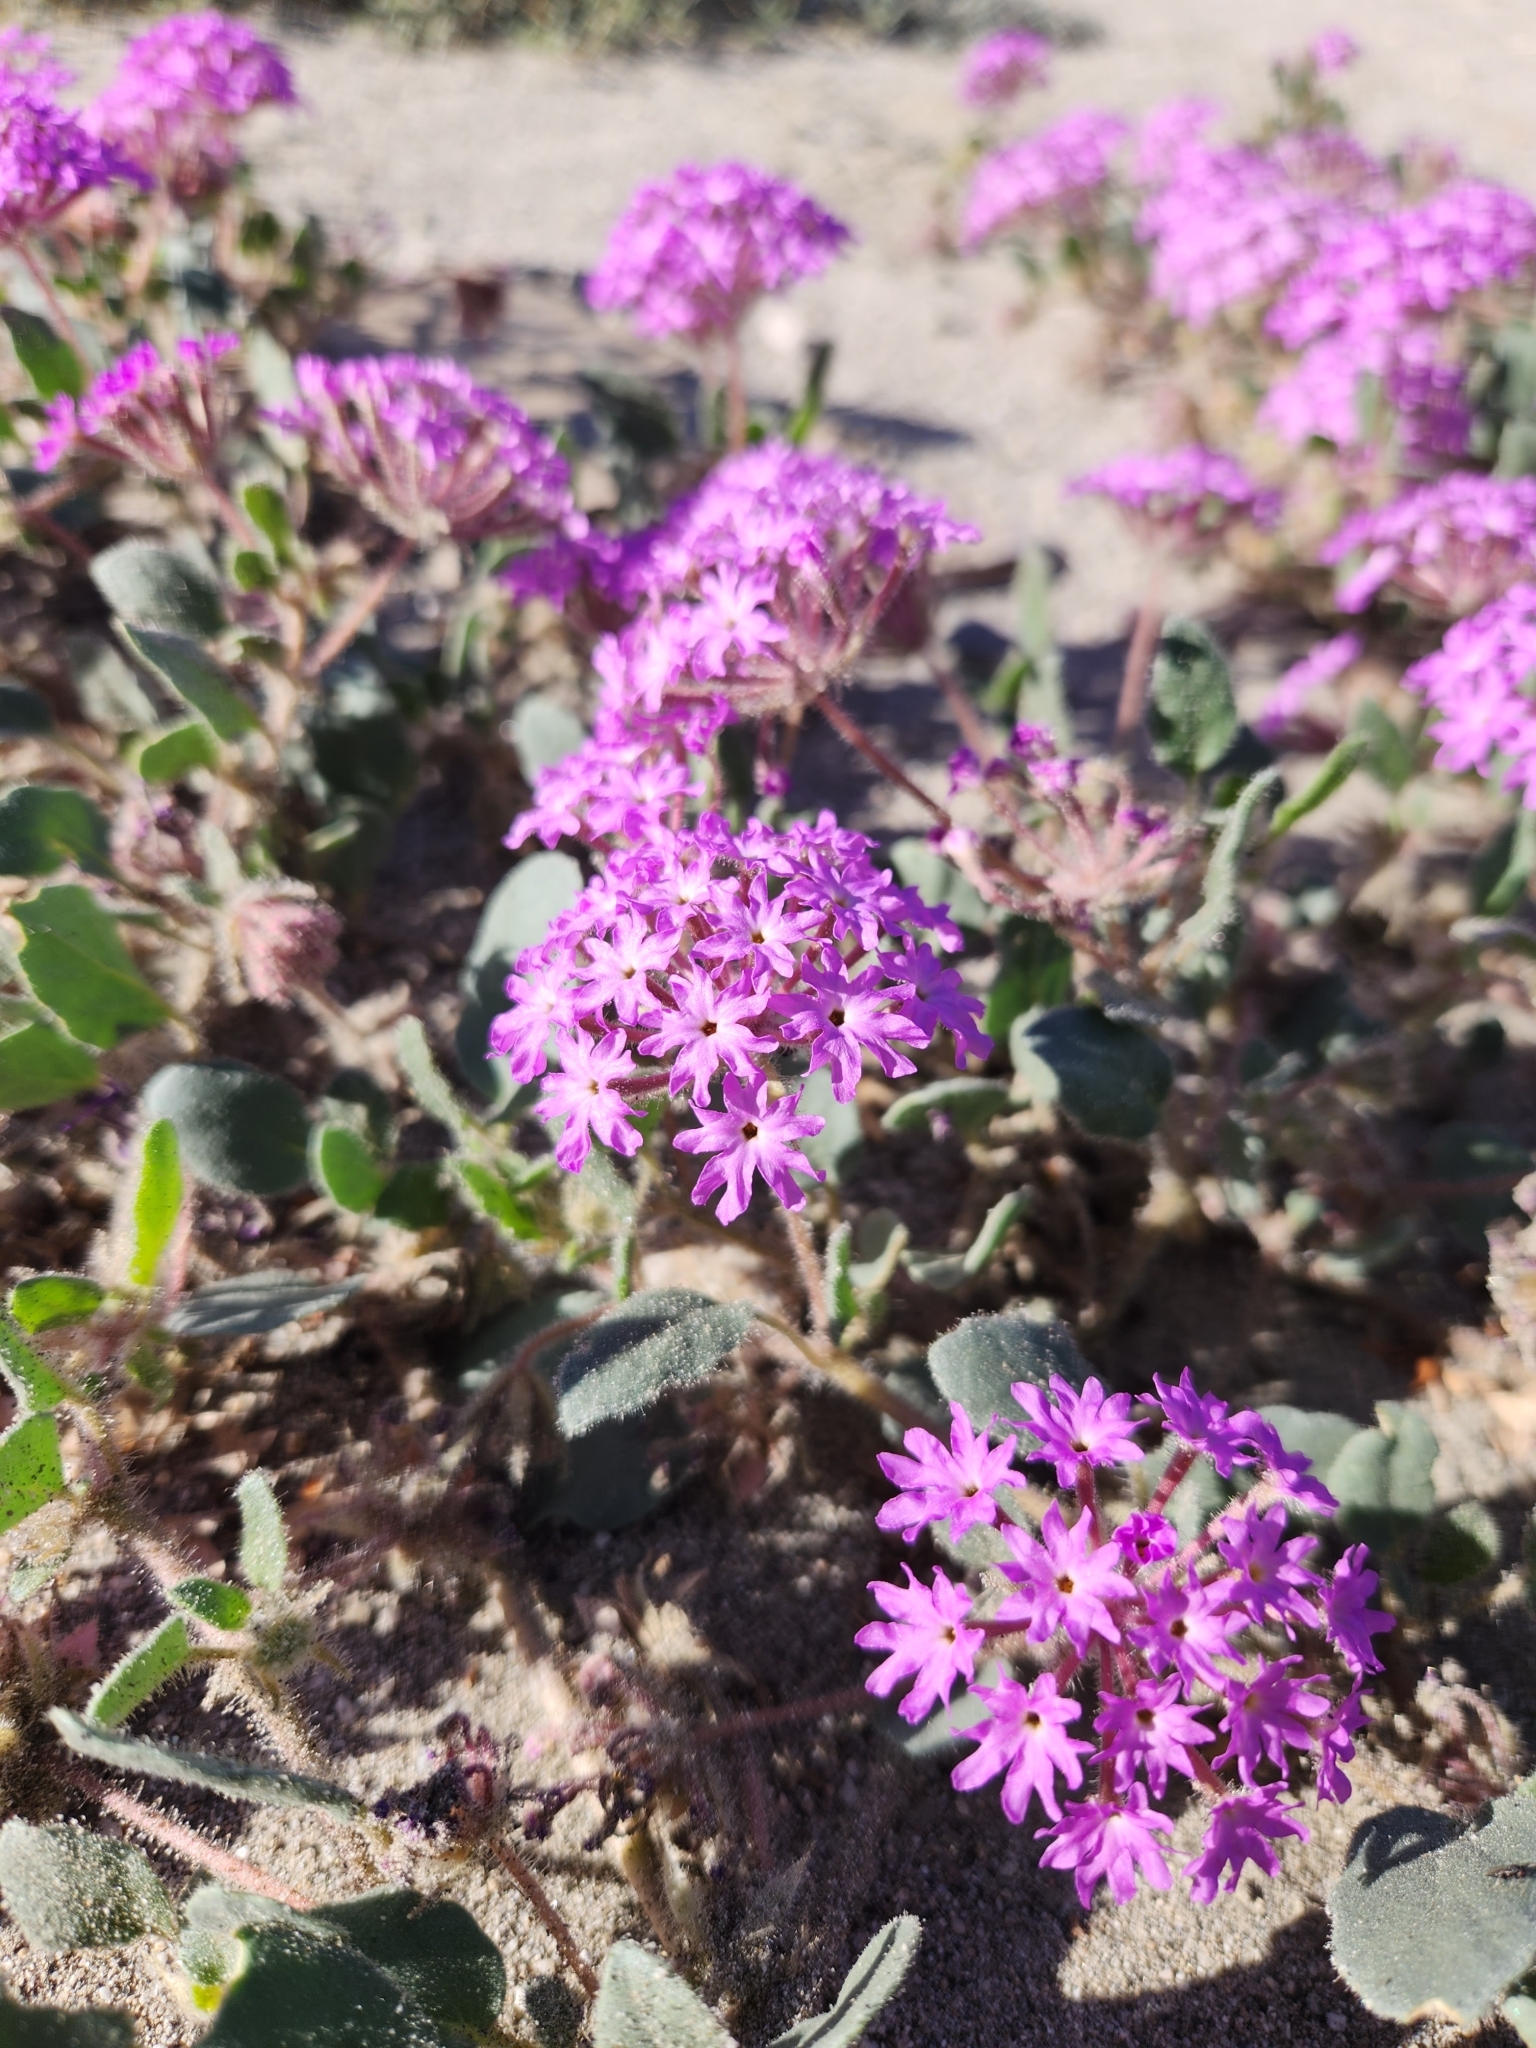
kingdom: Plantae
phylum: Tracheophyta
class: Magnoliopsida
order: Caryophyllales
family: Nyctaginaceae
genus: Abronia
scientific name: Abronia villosa
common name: Desert sand-verbena
